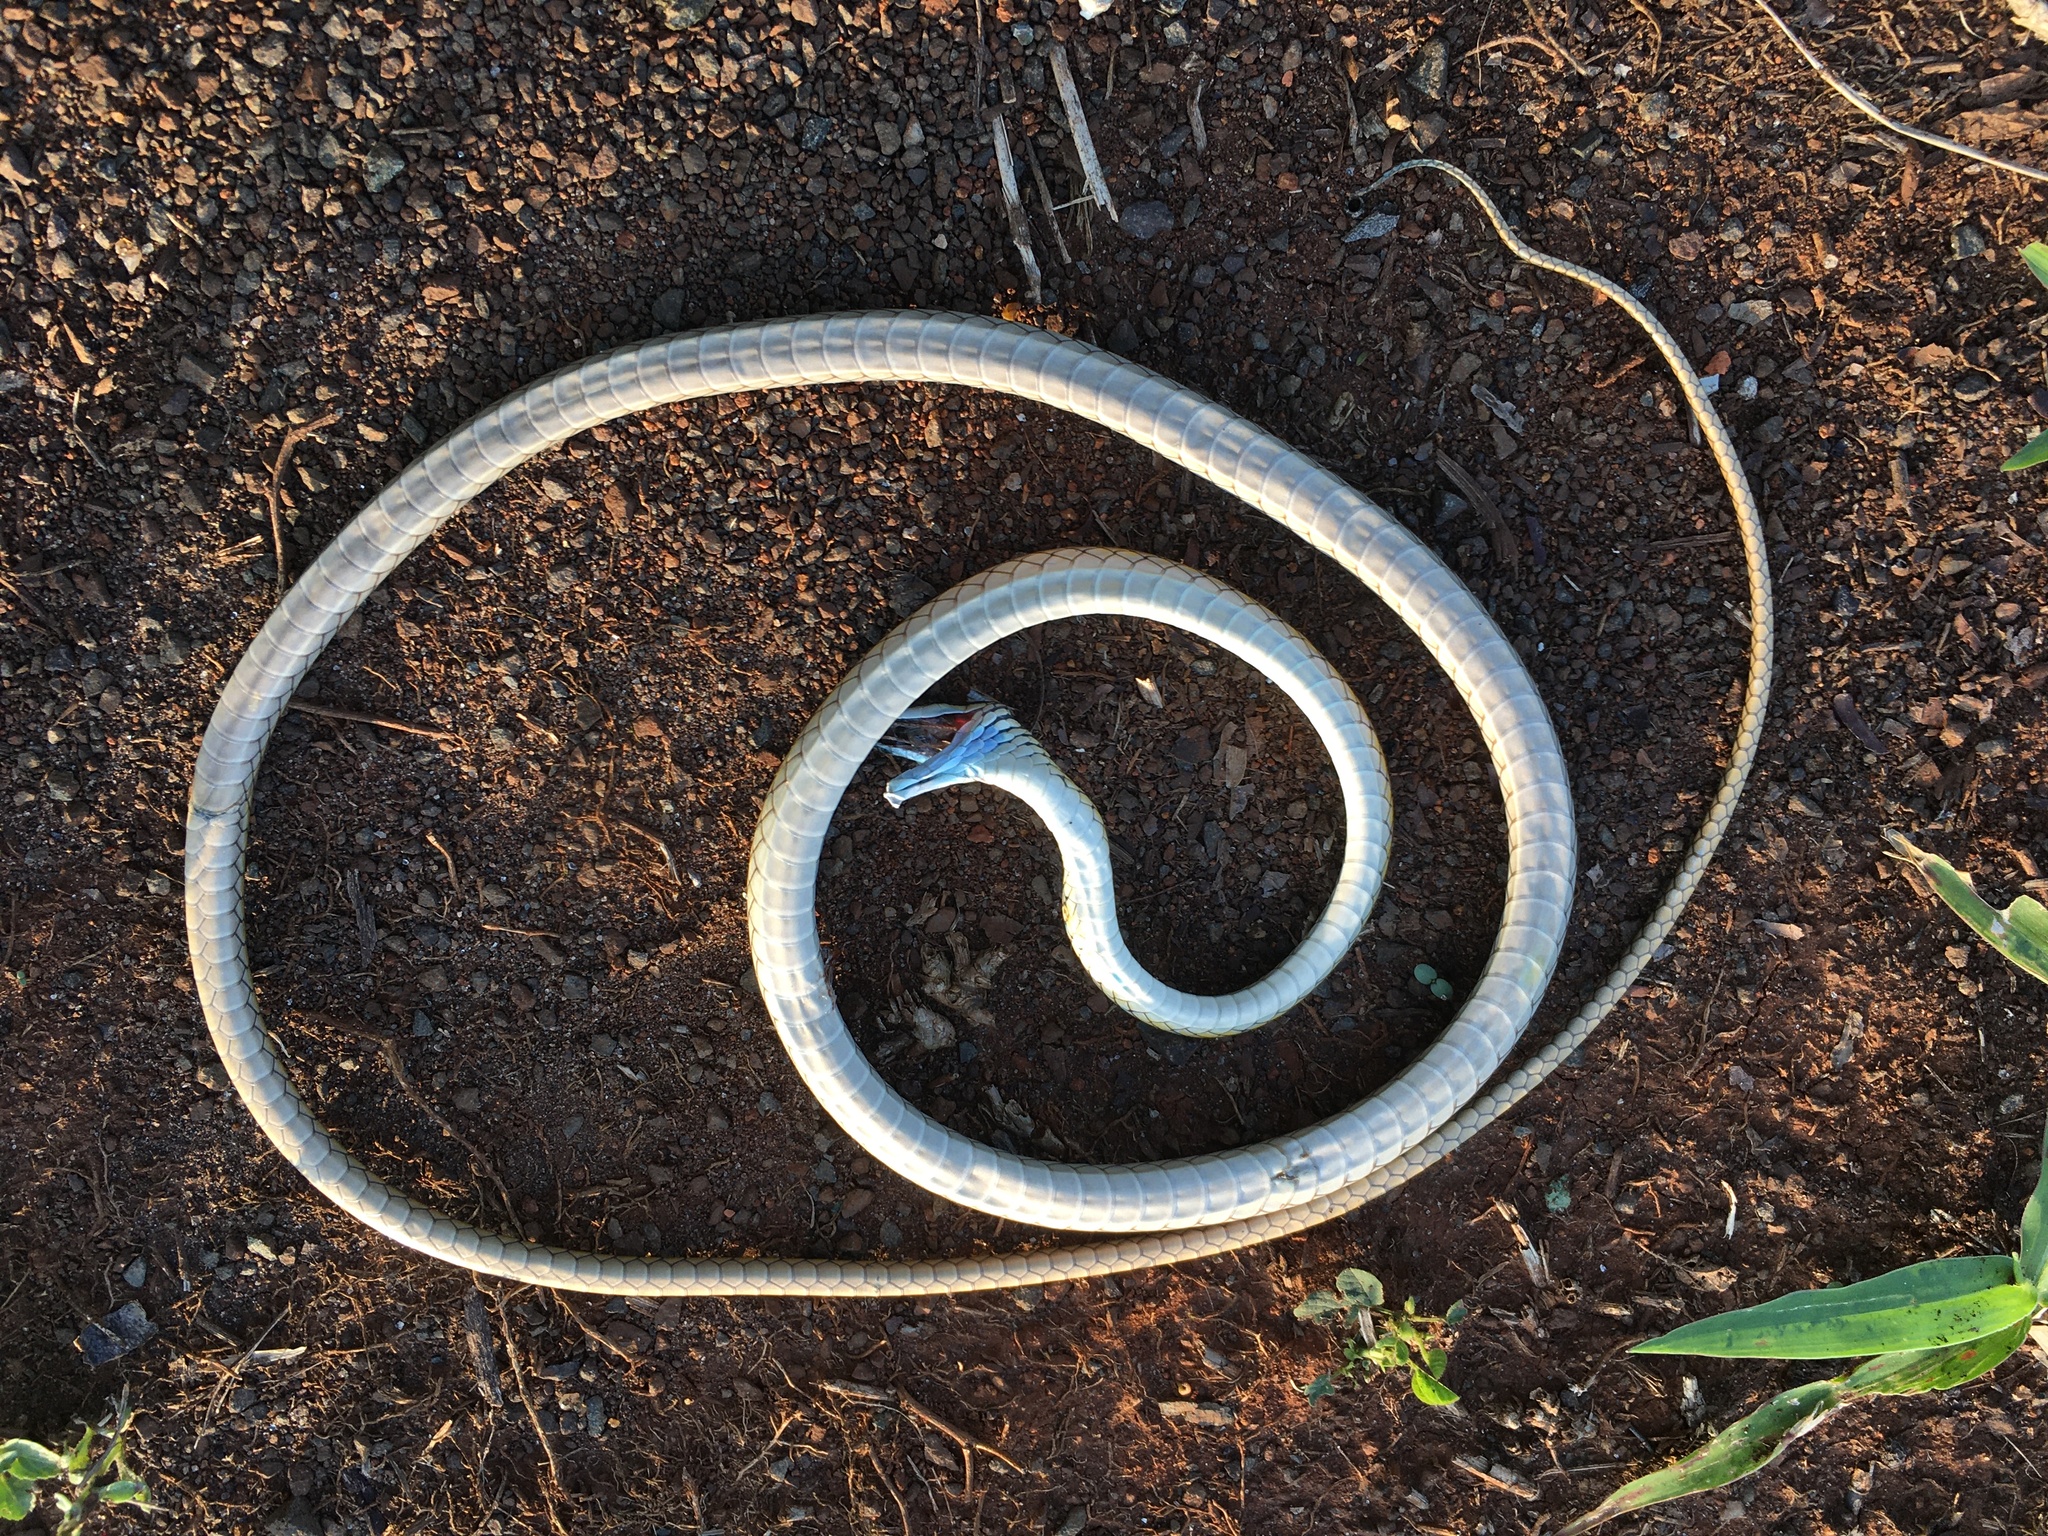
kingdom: Animalia
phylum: Chordata
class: Squamata
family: Colubridae
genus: Leptophis
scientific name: Leptophis ahaetulla
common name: Parrot snake
